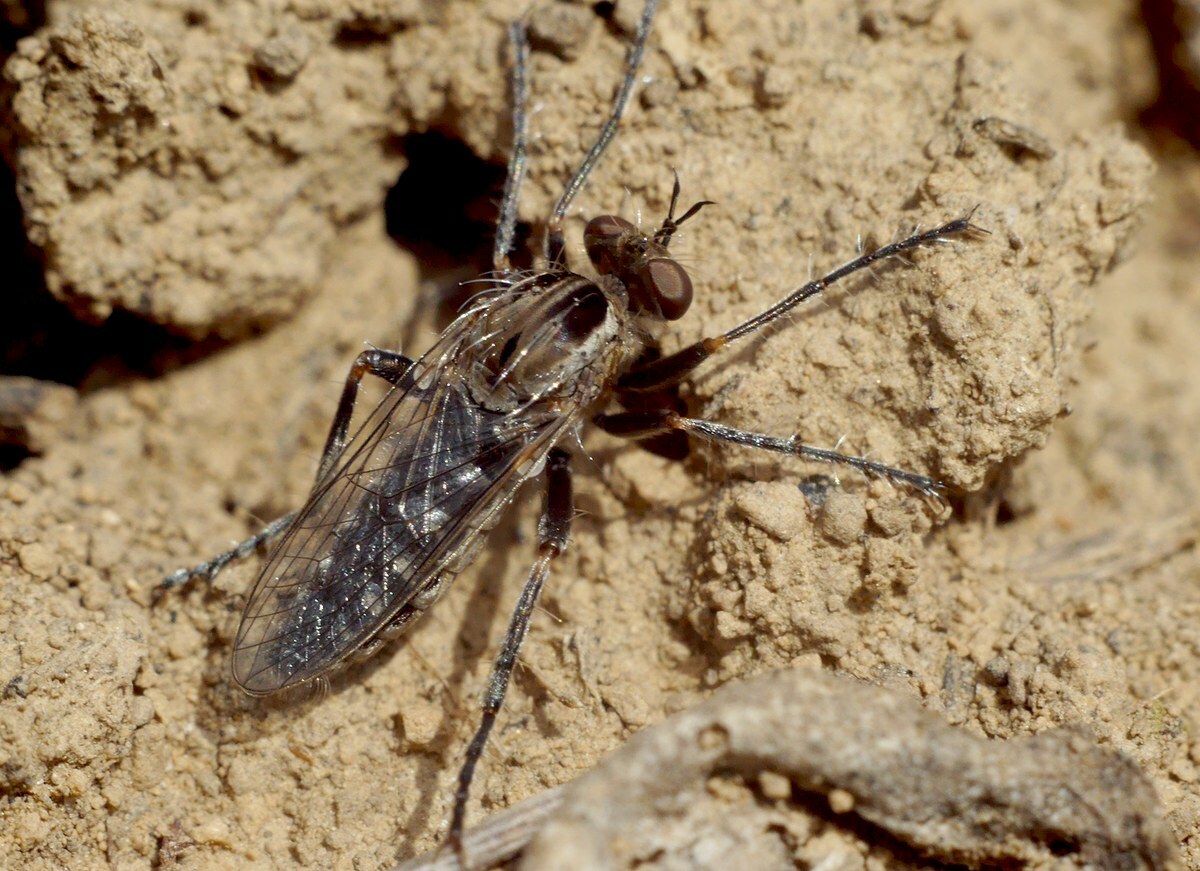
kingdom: Animalia
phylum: Arthropoda
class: Insecta
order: Diptera
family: Asilidae
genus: Paraphamartania
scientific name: Paraphamartania syriaca
